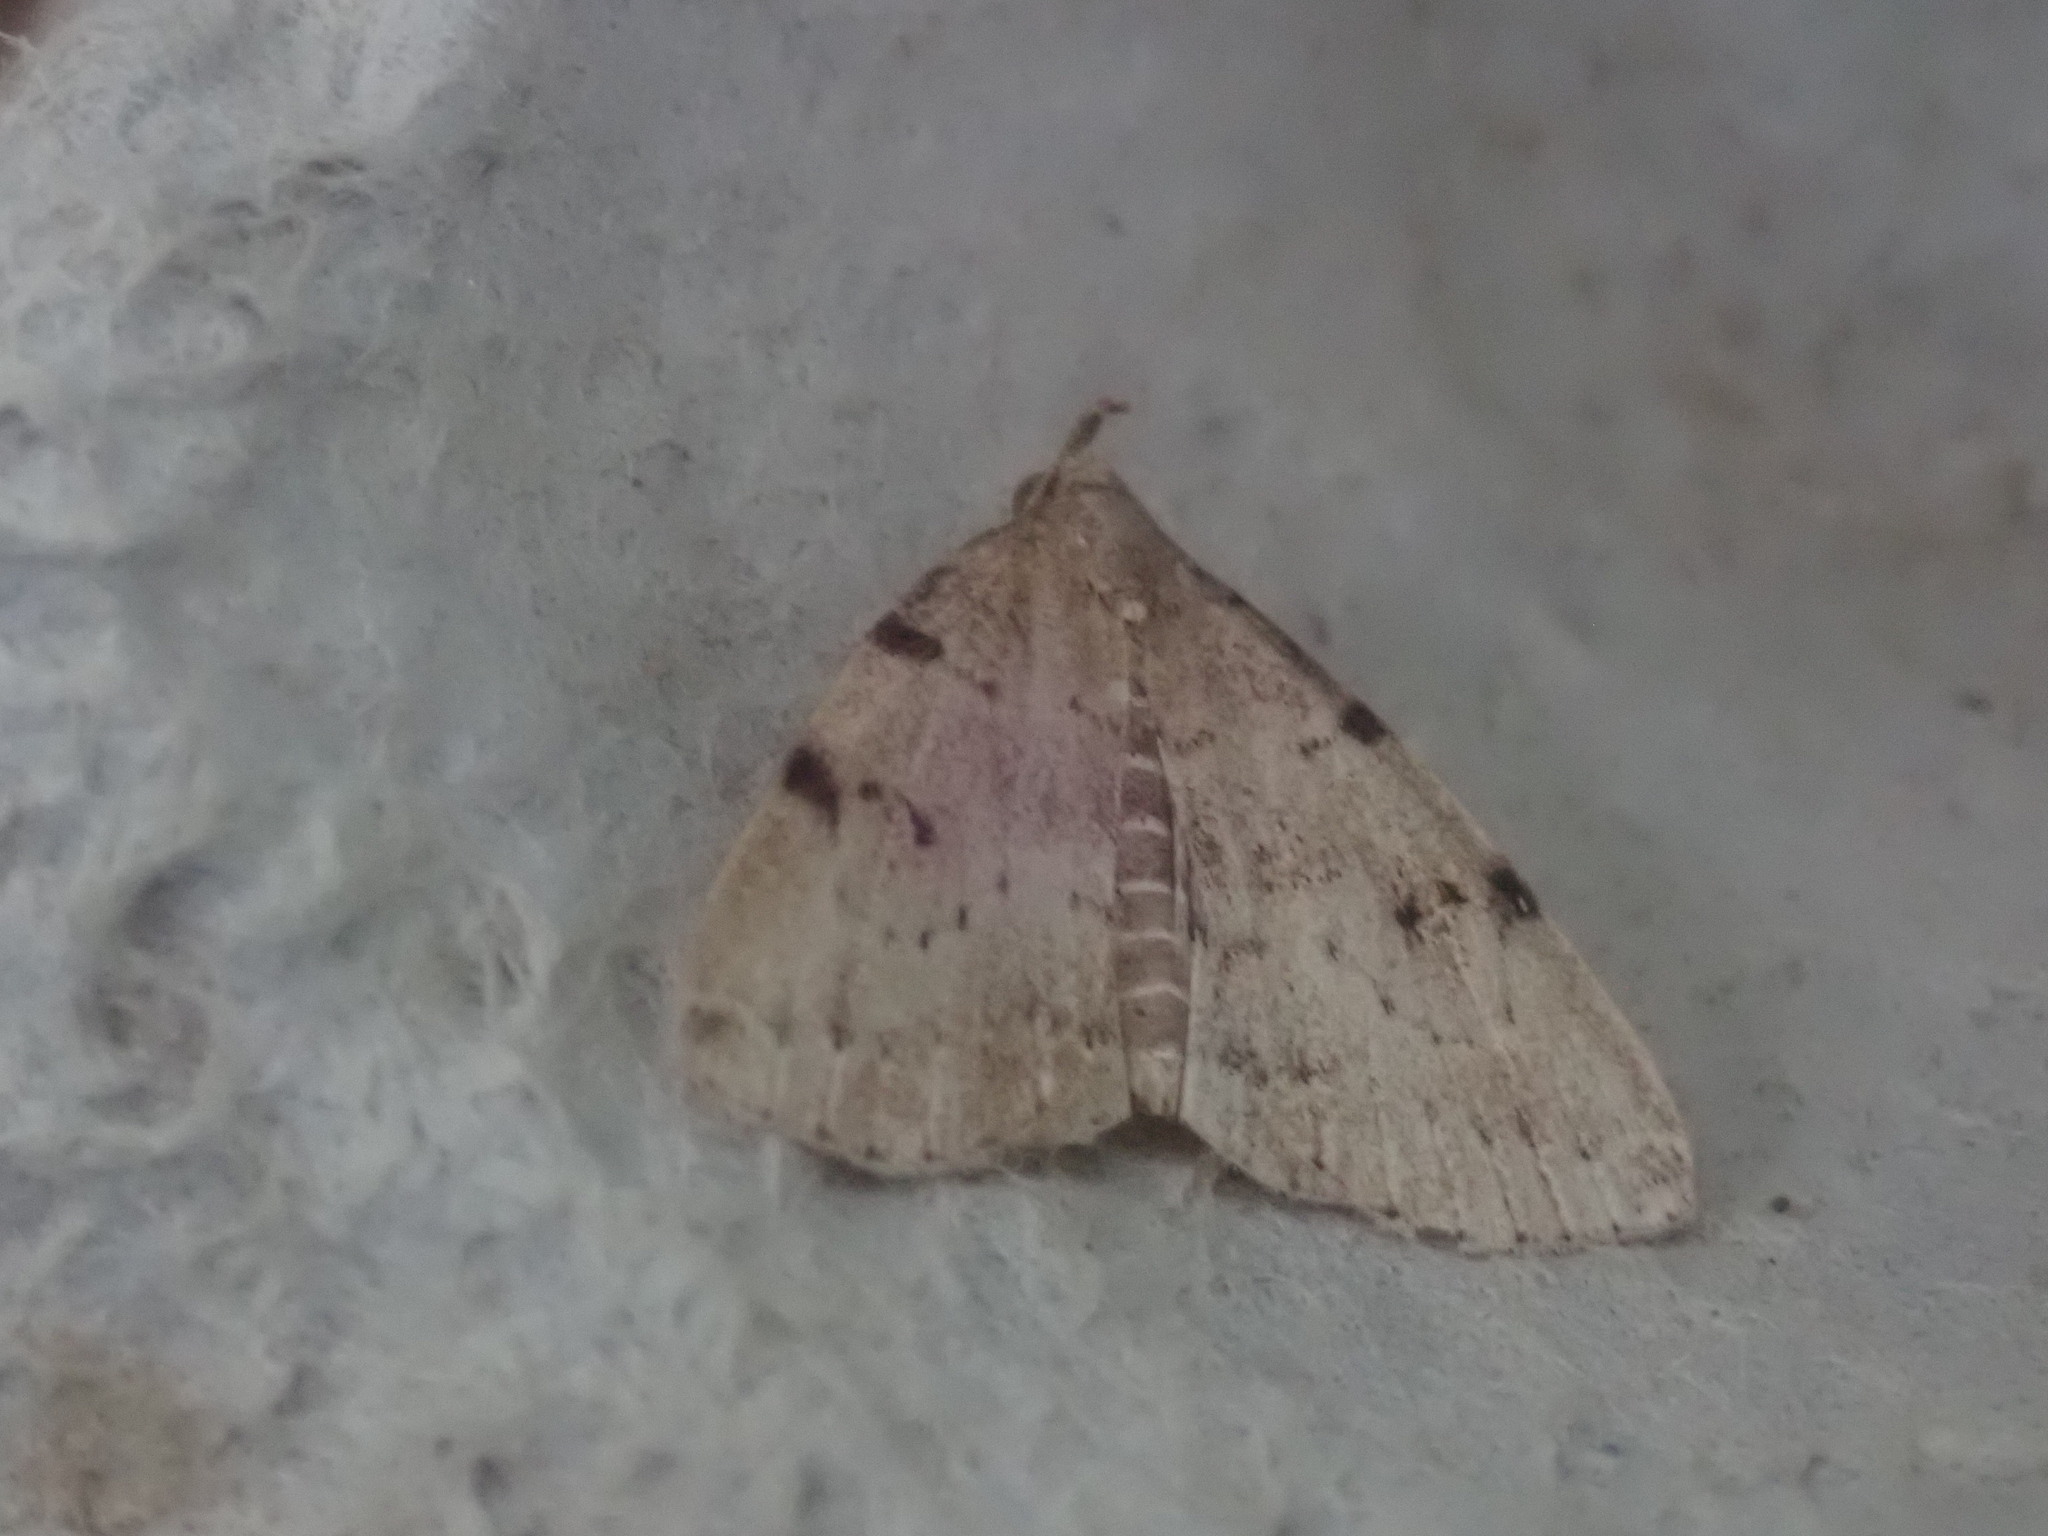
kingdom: Animalia
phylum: Arthropoda
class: Insecta
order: Lepidoptera
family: Erebidae
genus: Zanclognatha
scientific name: Zanclognatha lituralis
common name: Lettered fan-foot
